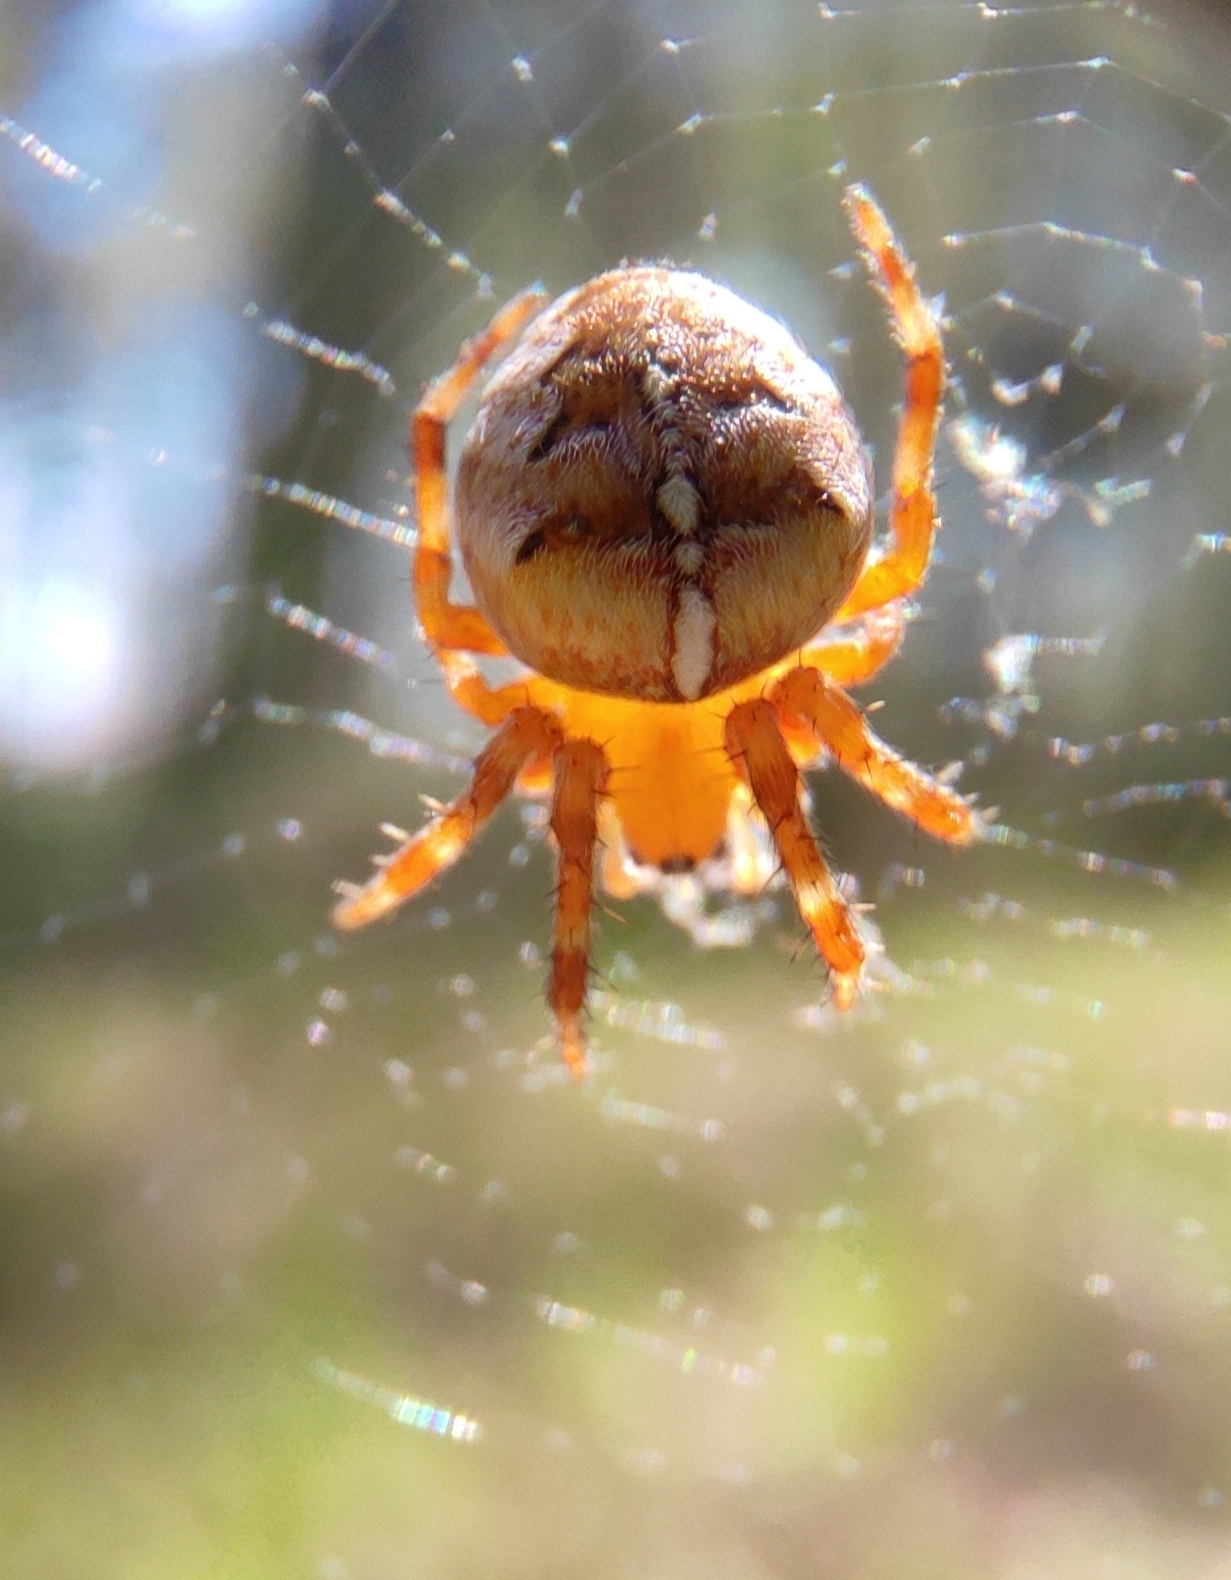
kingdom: Animalia
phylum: Arthropoda
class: Arachnida
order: Araneae
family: Araneidae
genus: Araneus
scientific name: Araneus diadematus
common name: Cross orbweaver
